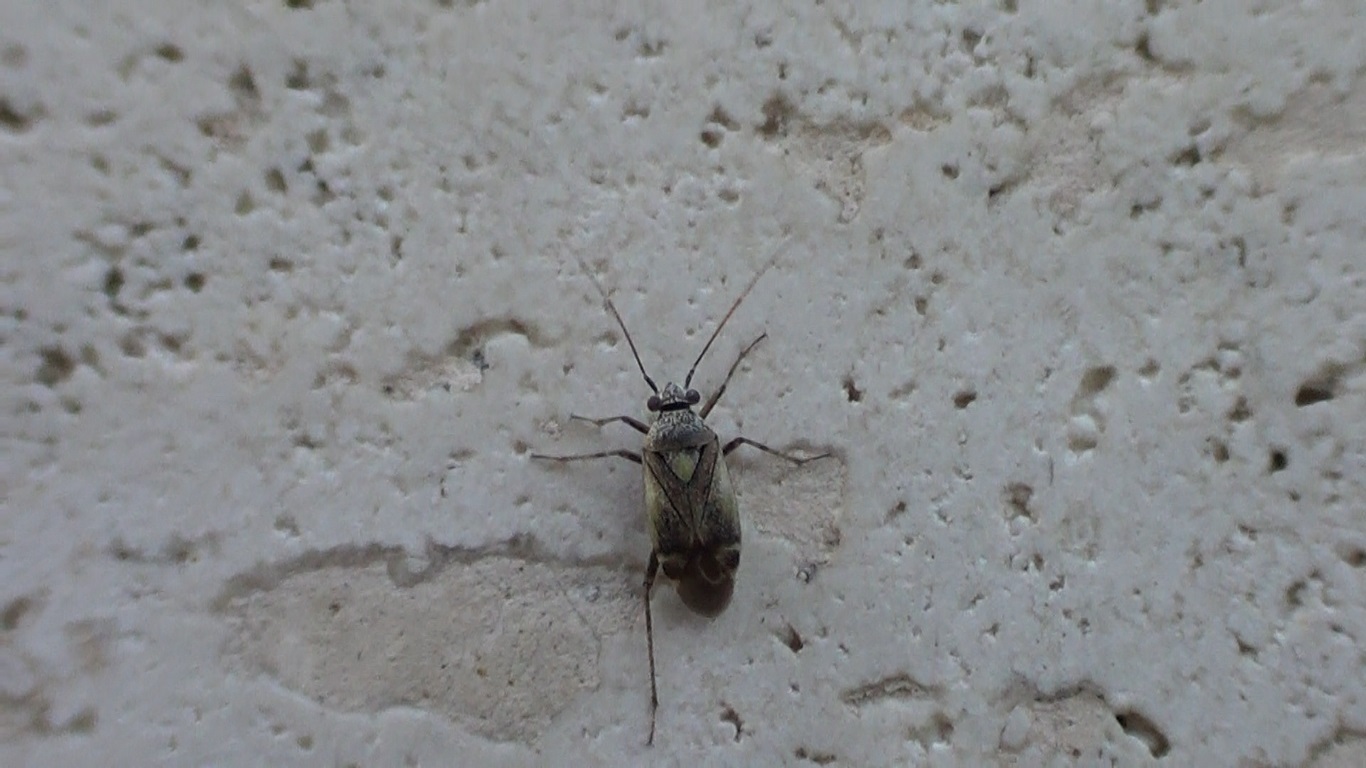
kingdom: Animalia
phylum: Arthropoda
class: Insecta
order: Hemiptera
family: Miridae
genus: Polymerus
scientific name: Polymerus cognatus
